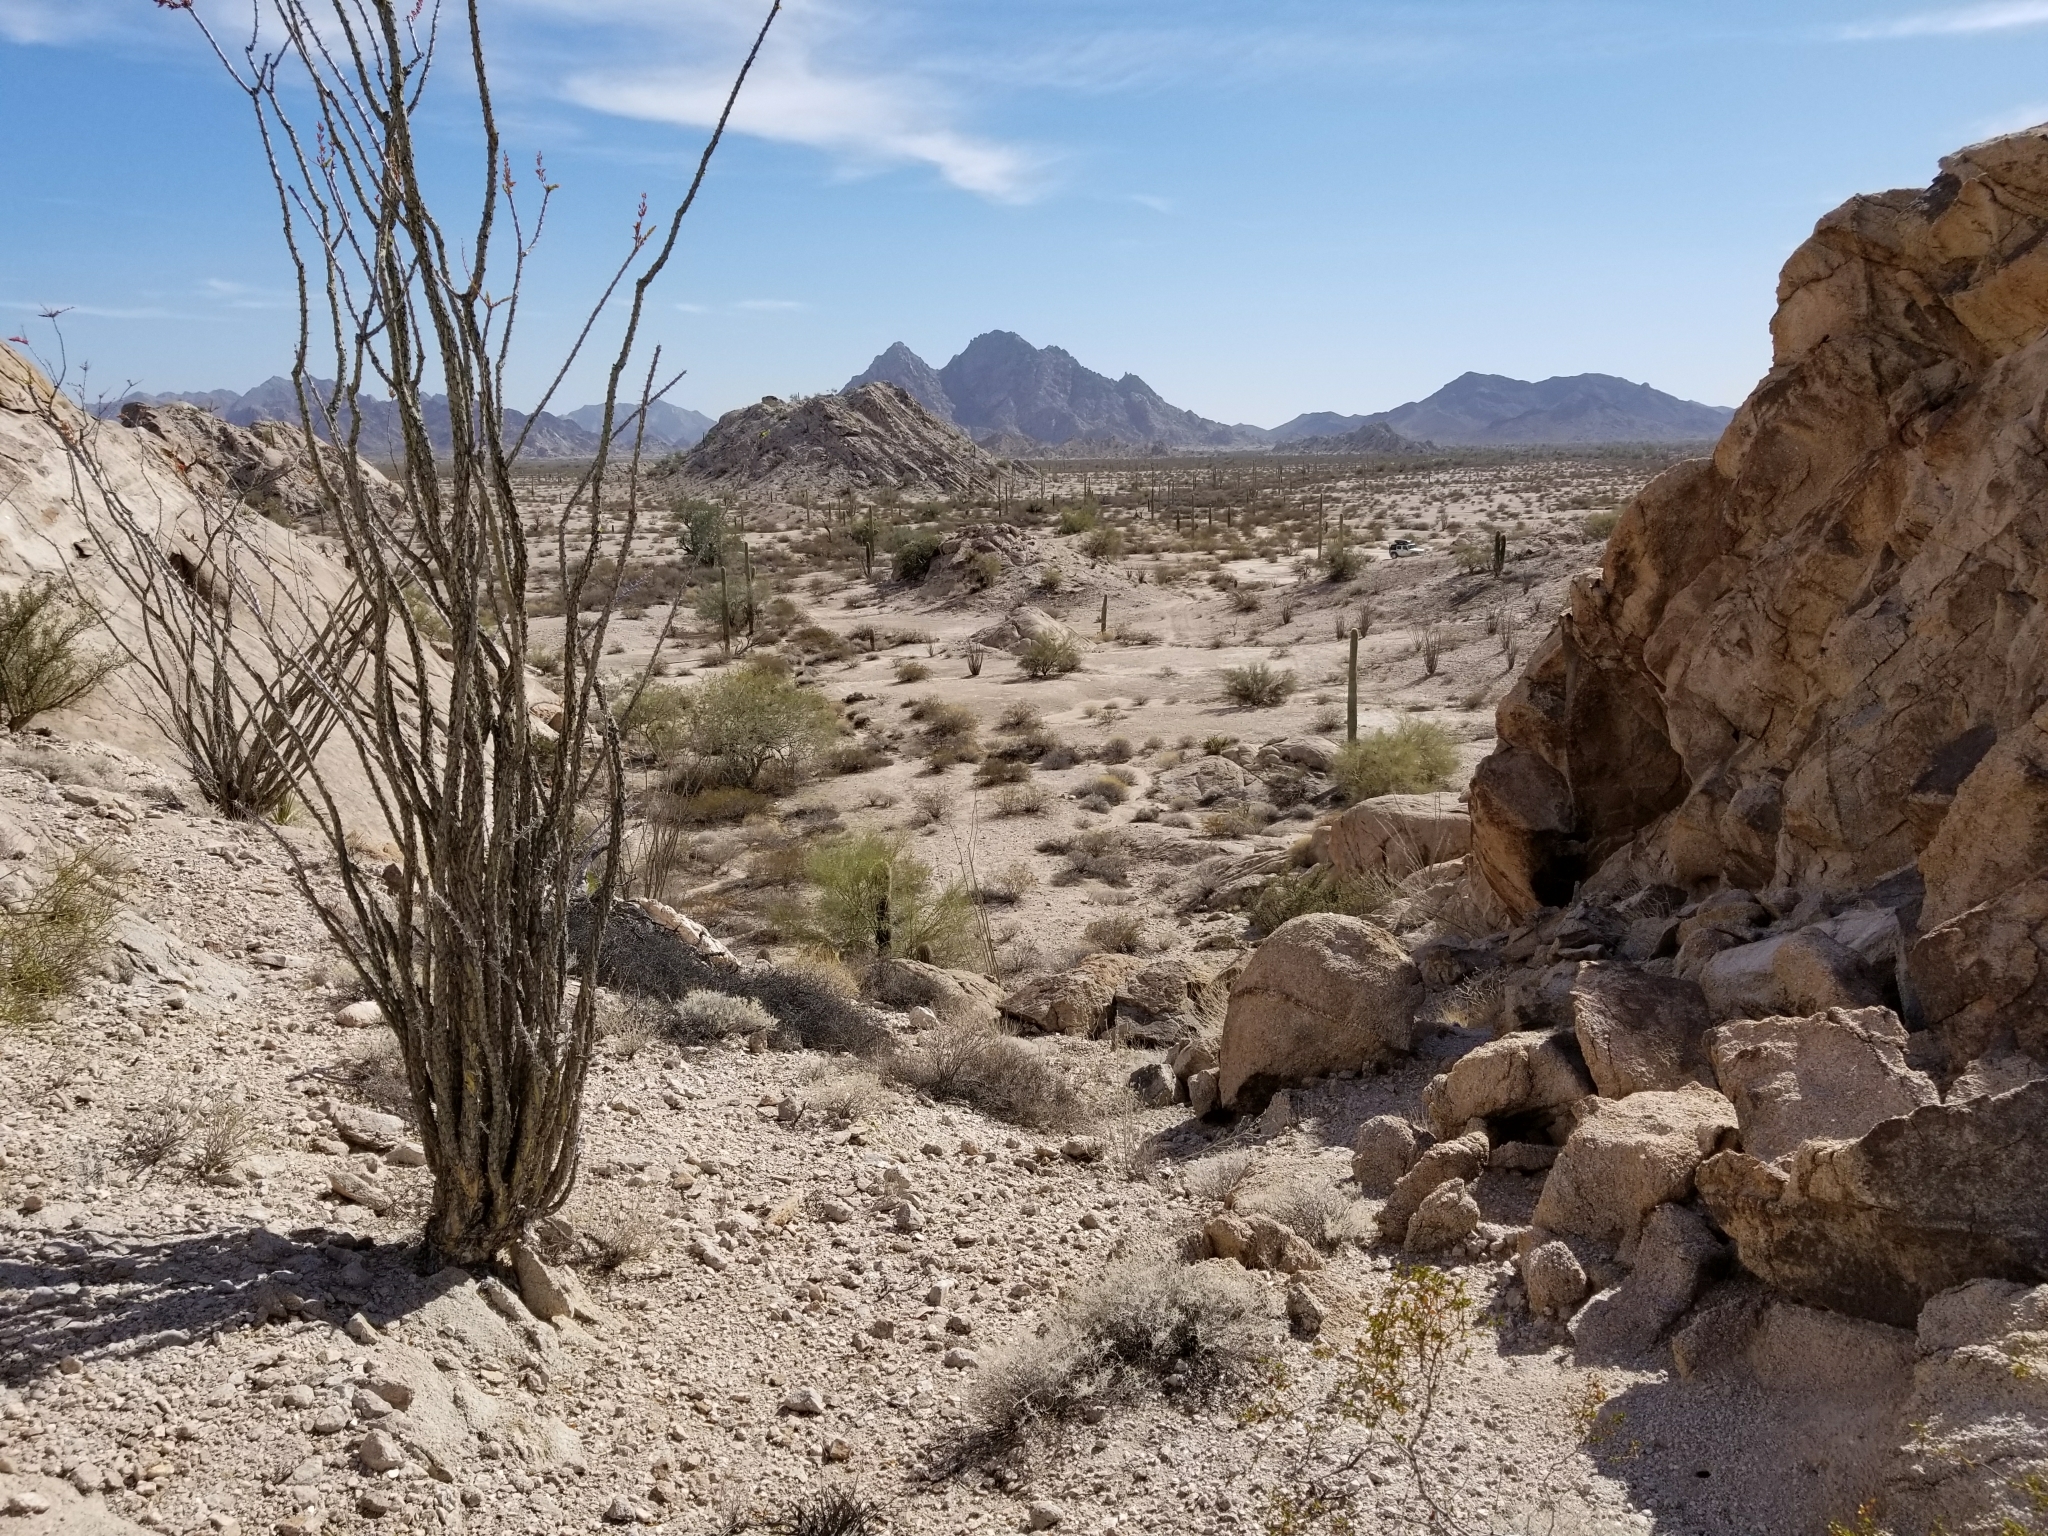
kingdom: Plantae
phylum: Tracheophyta
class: Magnoliopsida
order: Ericales
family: Fouquieriaceae
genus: Fouquieria
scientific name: Fouquieria splendens
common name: Vine-cactus
